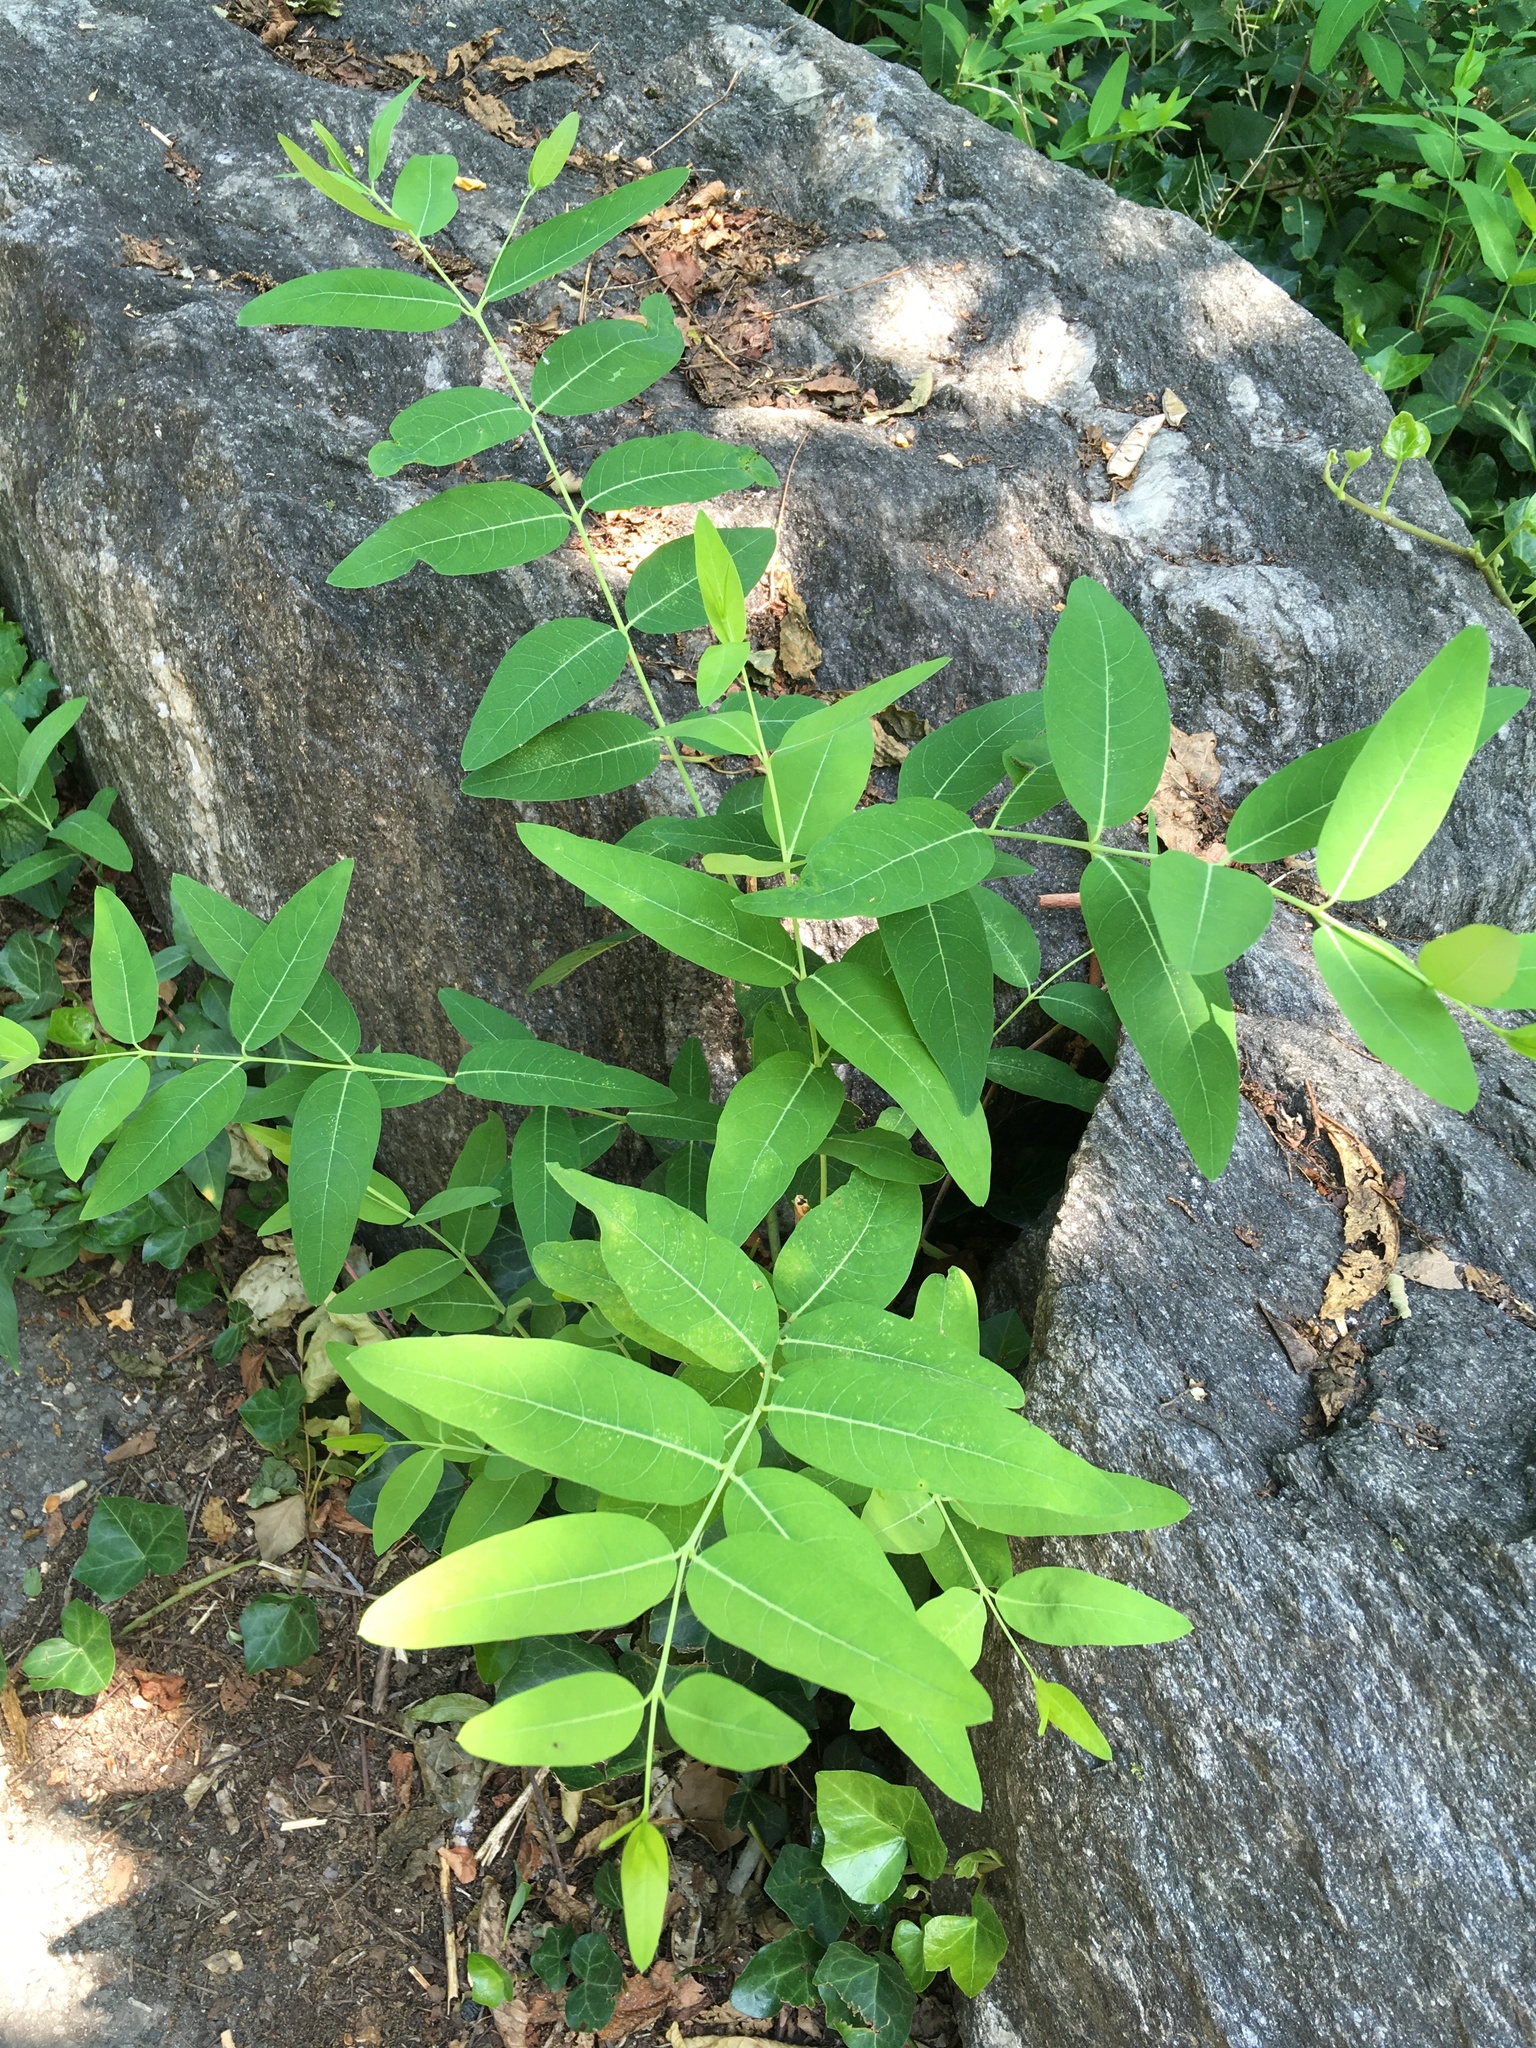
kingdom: Plantae
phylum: Tracheophyta
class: Magnoliopsida
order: Gentianales
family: Apocynaceae
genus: Apocynum
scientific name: Apocynum cannabinum
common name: Hemp dogbane
